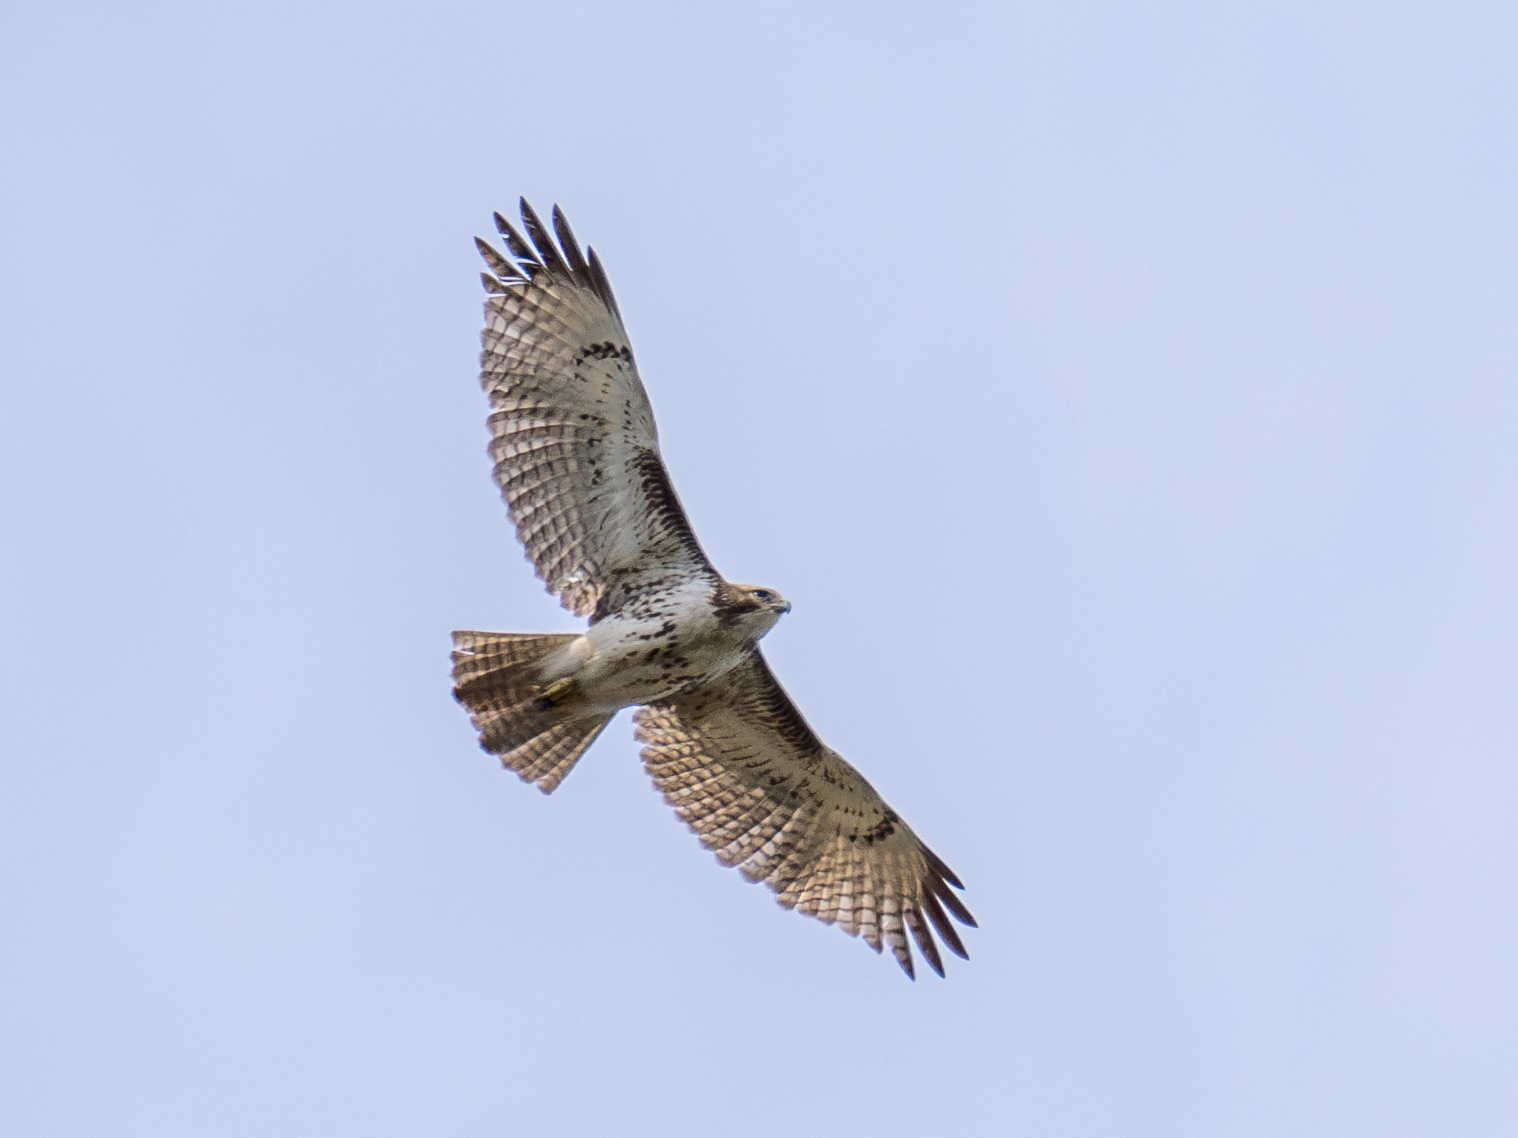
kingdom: Animalia
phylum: Chordata
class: Aves
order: Accipitriformes
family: Accipitridae
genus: Buteo
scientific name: Buteo jamaicensis
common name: Red-tailed hawk
